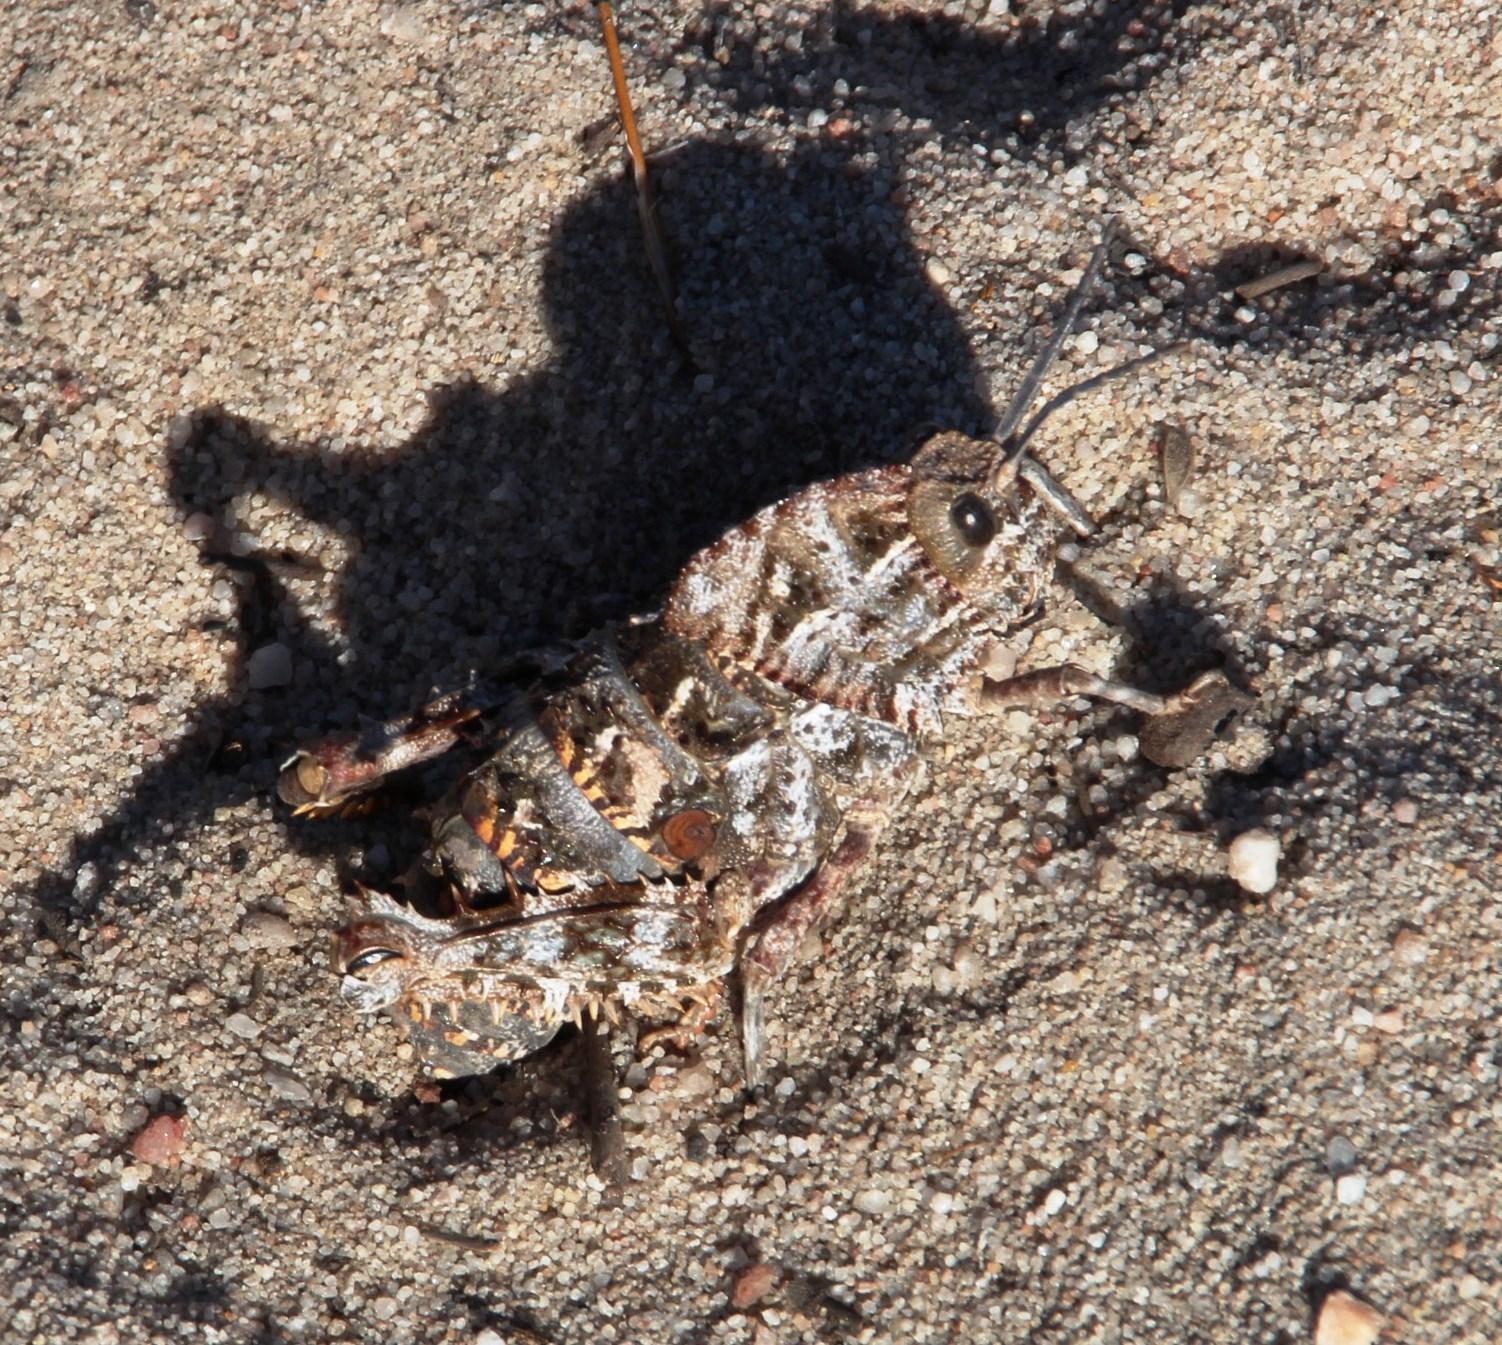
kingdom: Animalia
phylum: Arthropoda
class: Insecta
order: Orthoptera
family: Pamphagidae
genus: Porthetis
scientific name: Porthetis carinata
